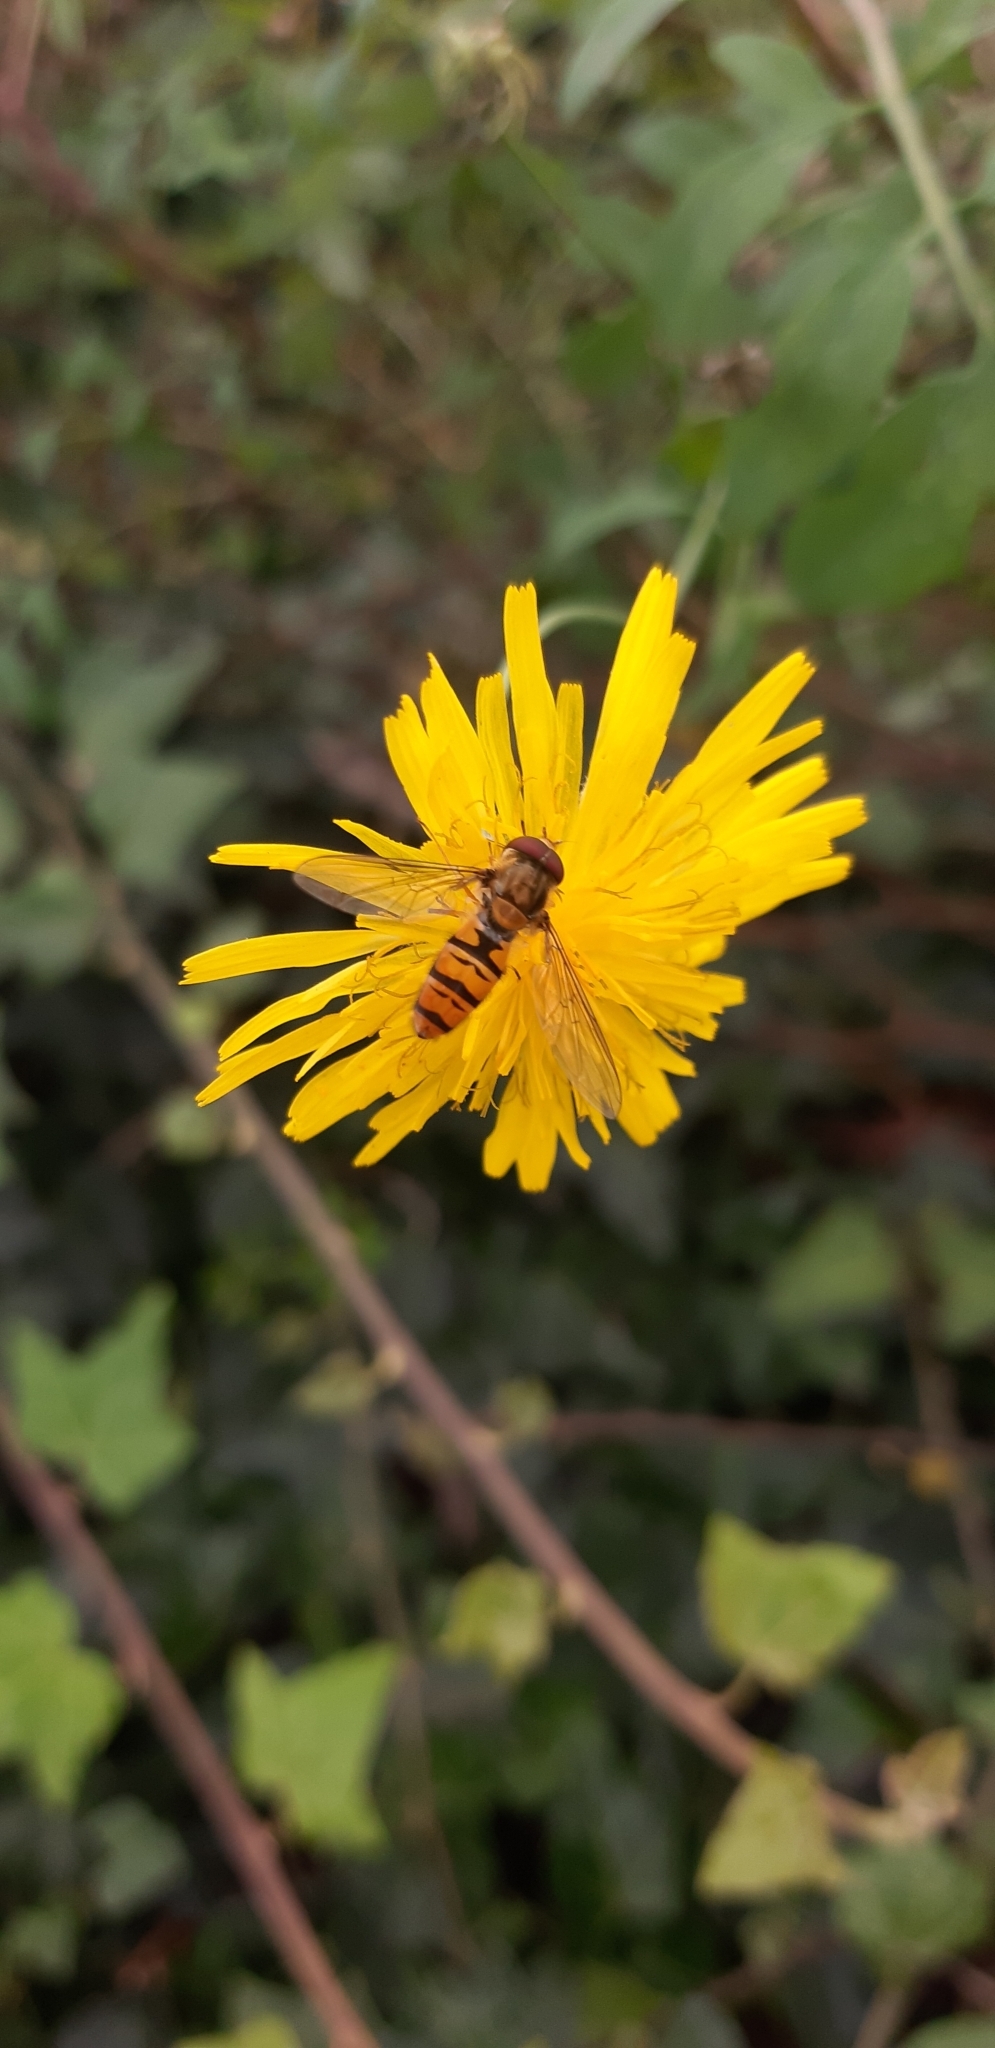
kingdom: Animalia
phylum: Arthropoda
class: Insecta
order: Diptera
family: Syrphidae
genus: Episyrphus
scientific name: Episyrphus balteatus
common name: Marmalade hoverfly
